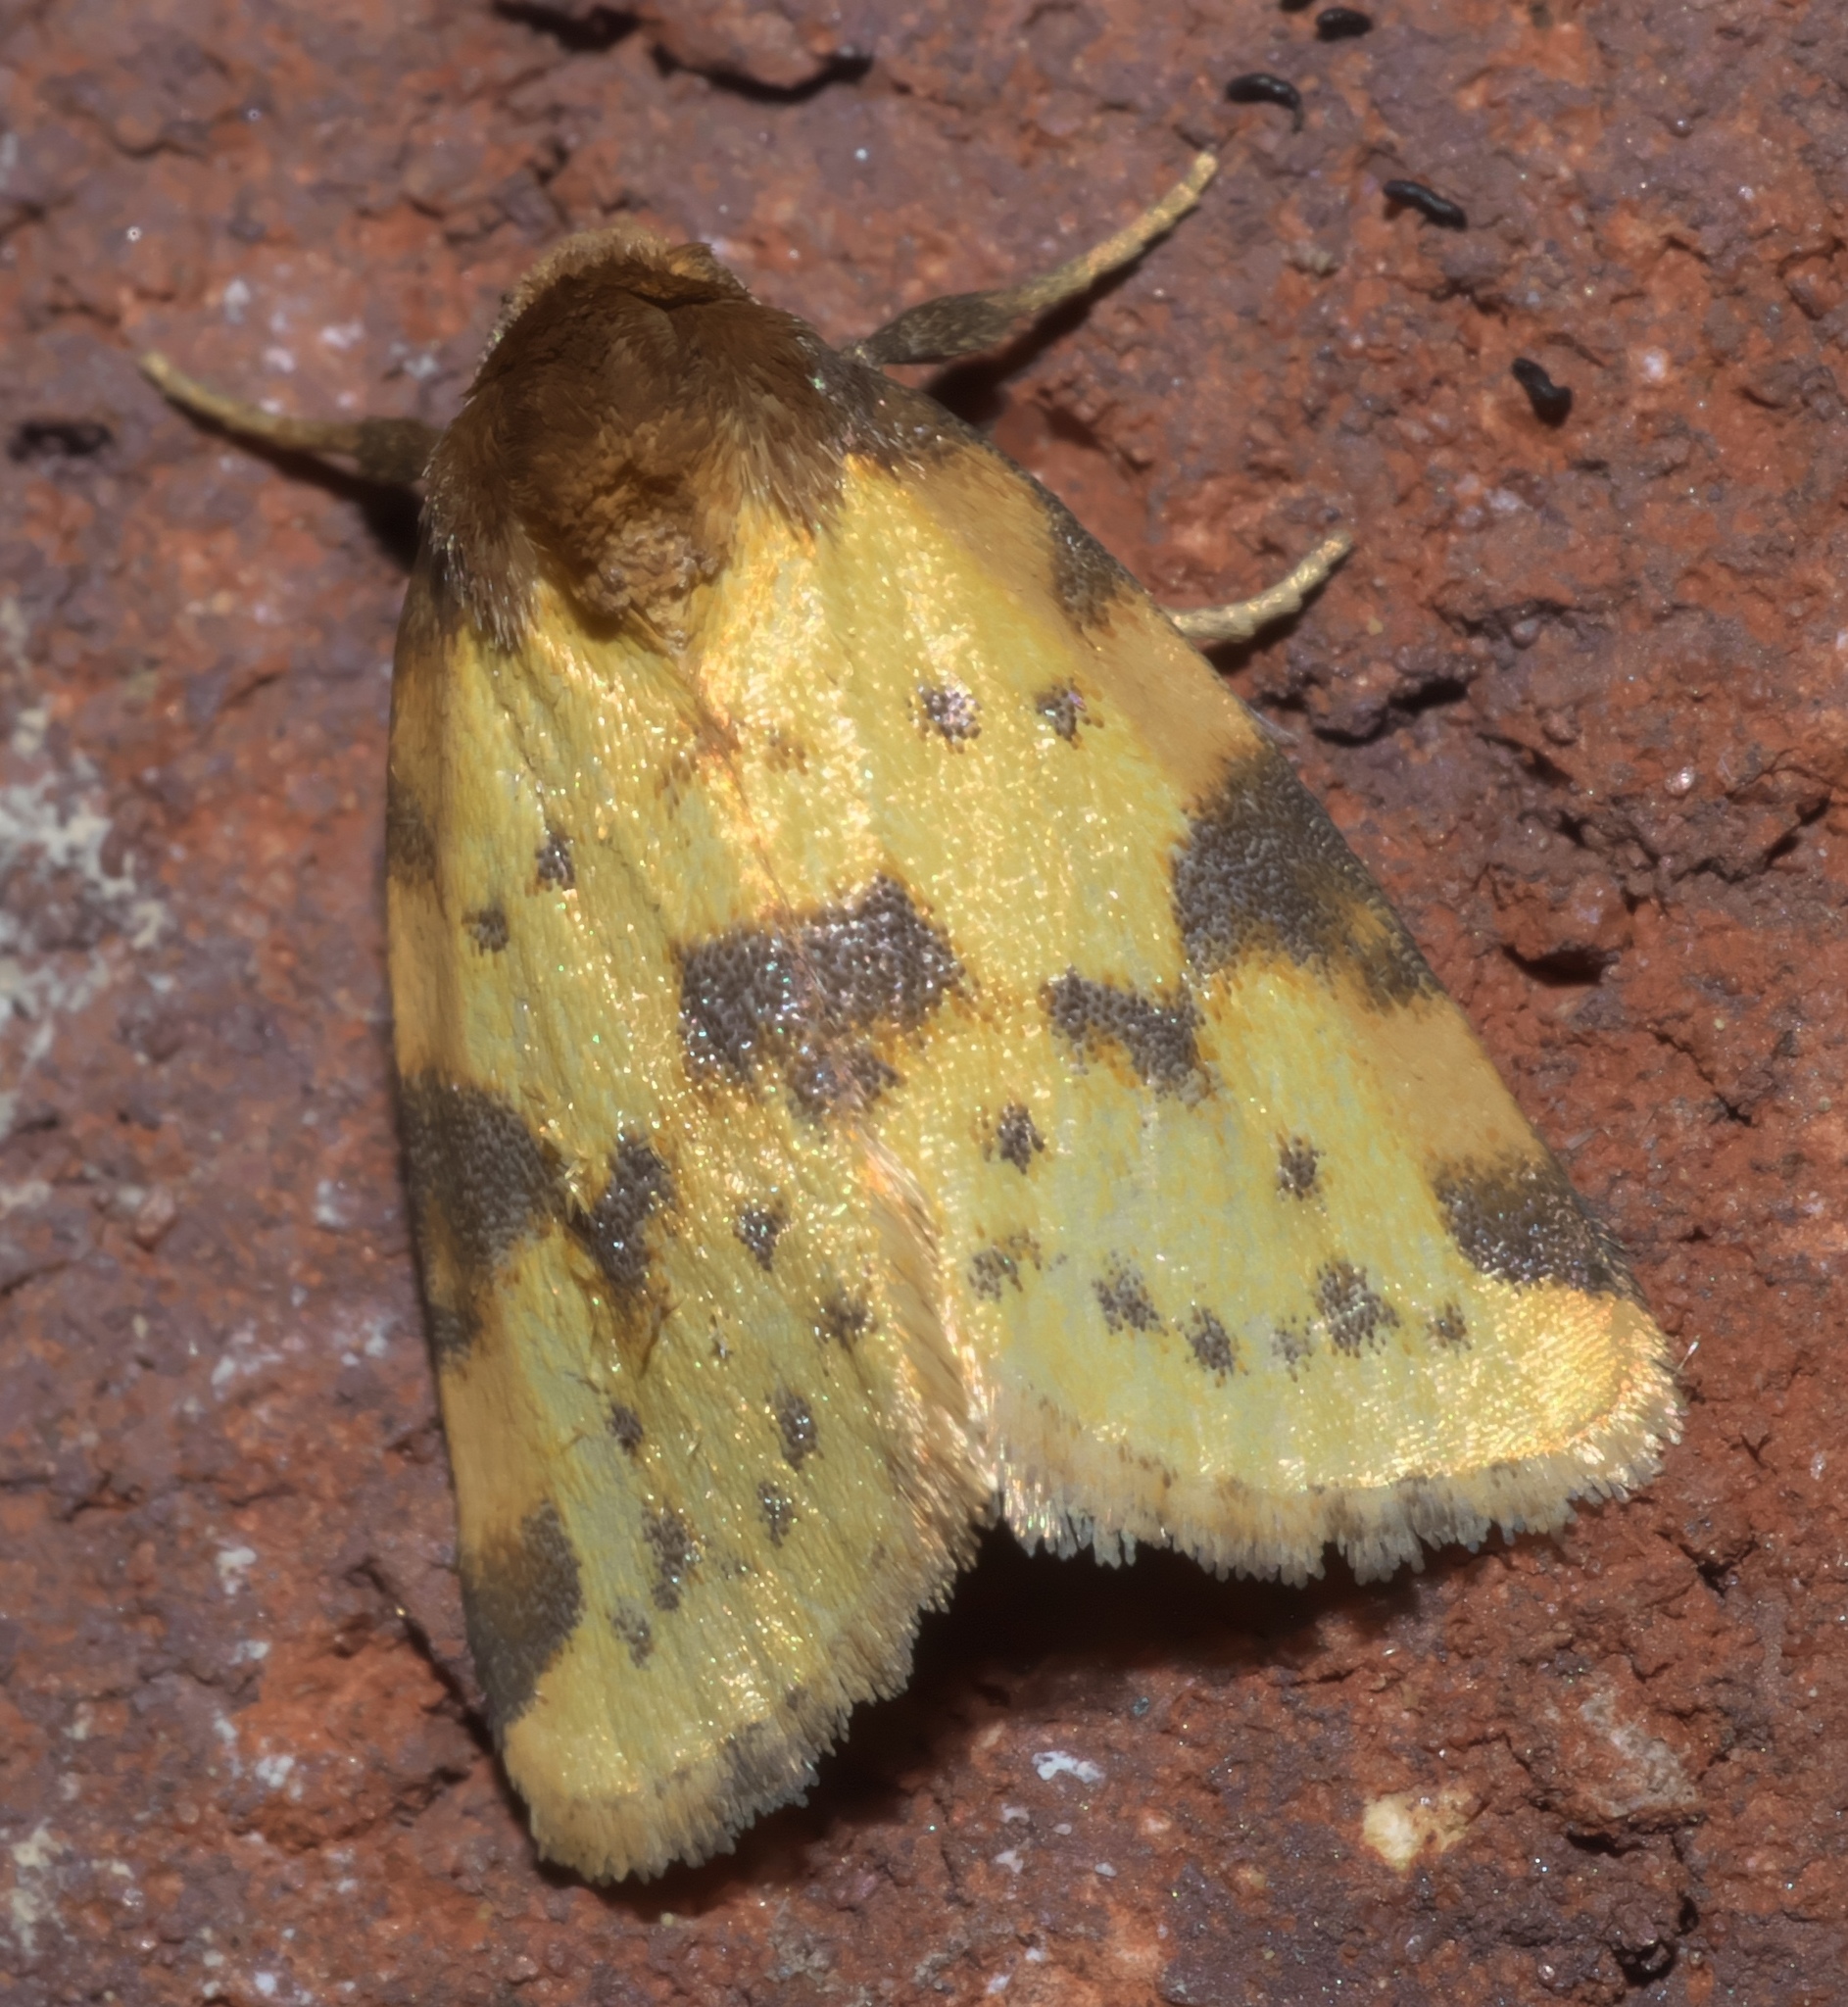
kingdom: Animalia
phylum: Arthropoda
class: Insecta
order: Lepidoptera
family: Noctuidae
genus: Azenia
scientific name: Azenia obtusa
